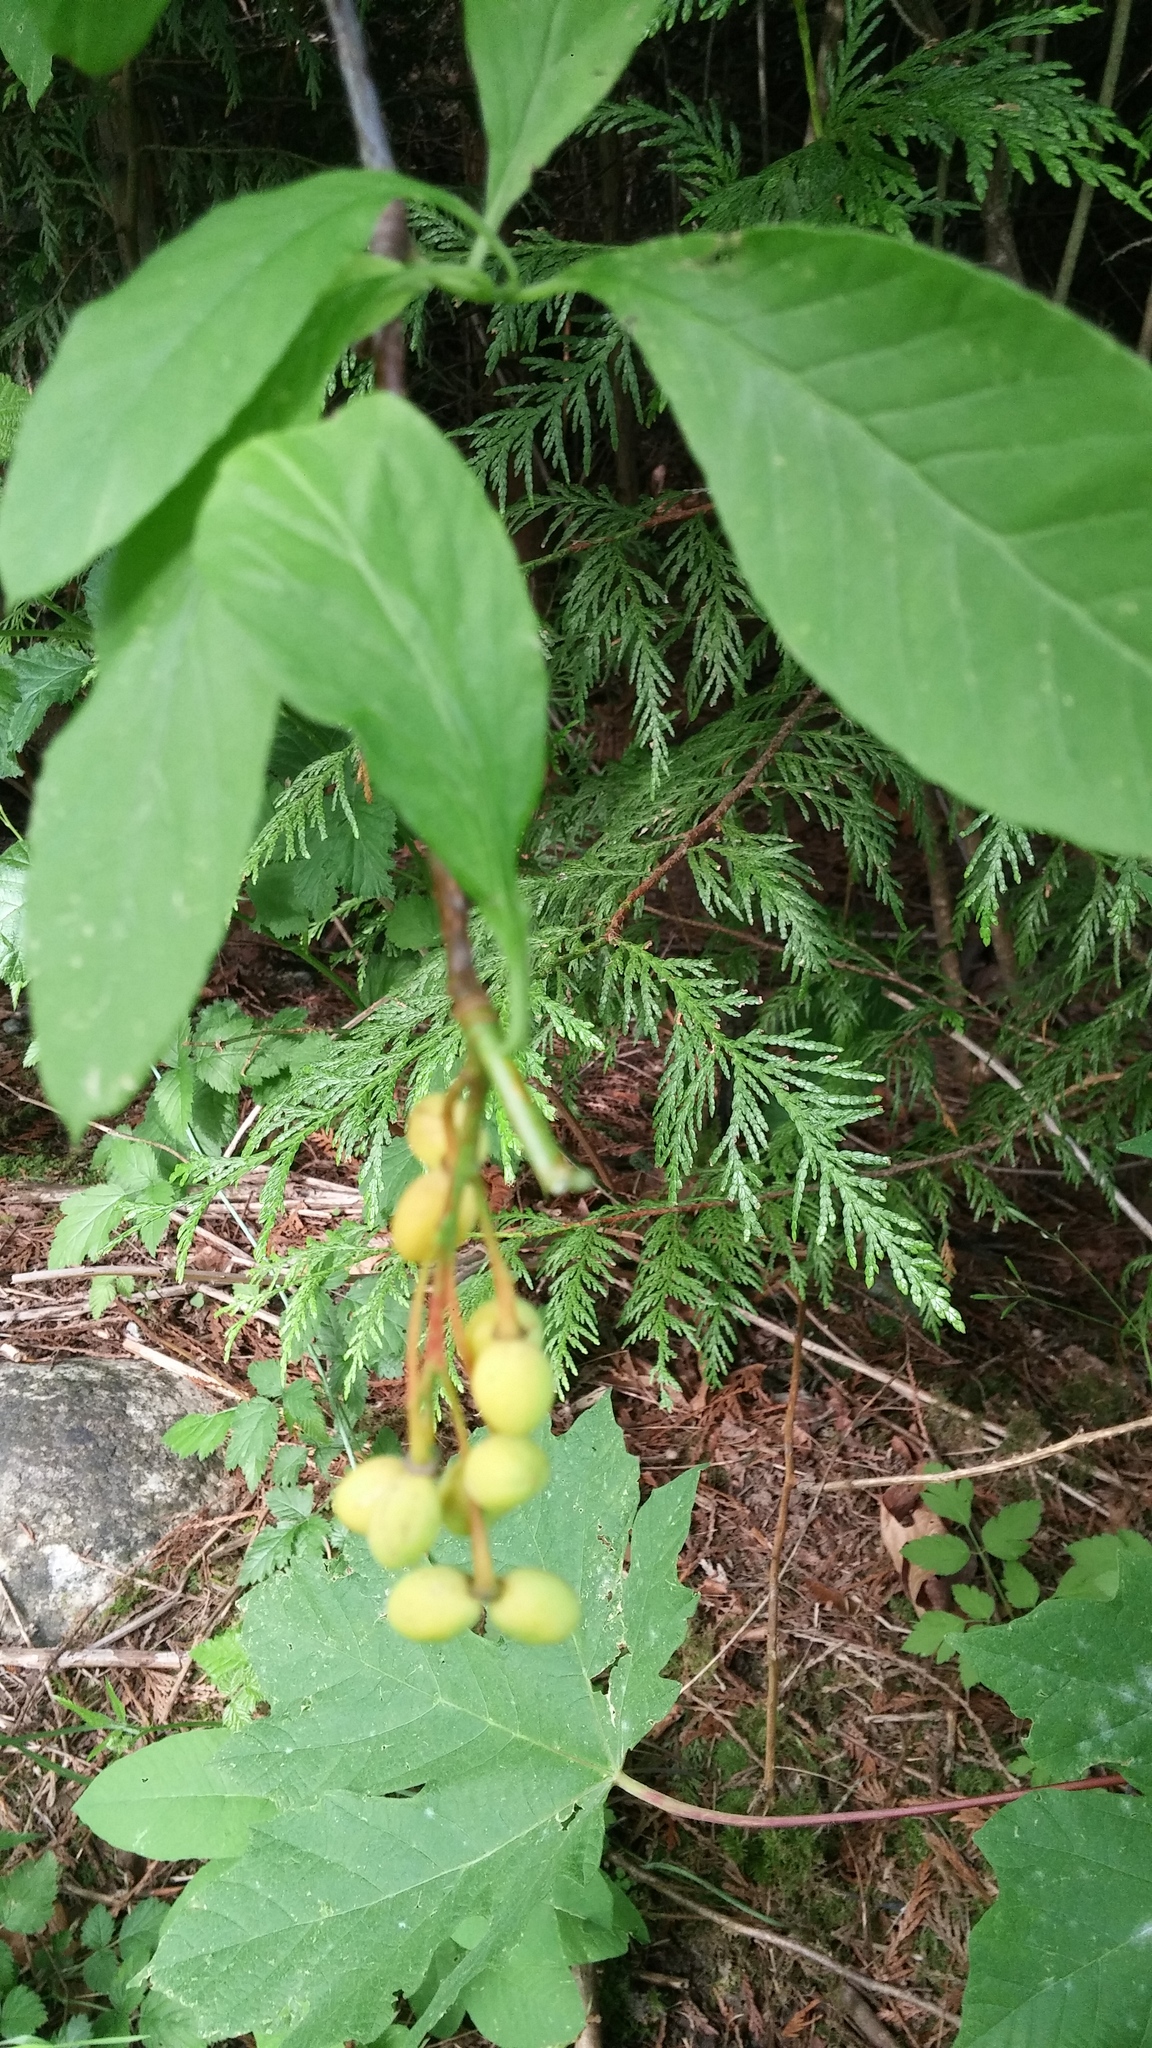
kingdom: Plantae
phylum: Tracheophyta
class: Magnoliopsida
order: Rosales
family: Rosaceae
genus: Oemleria
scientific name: Oemleria cerasiformis
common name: Osoberry
